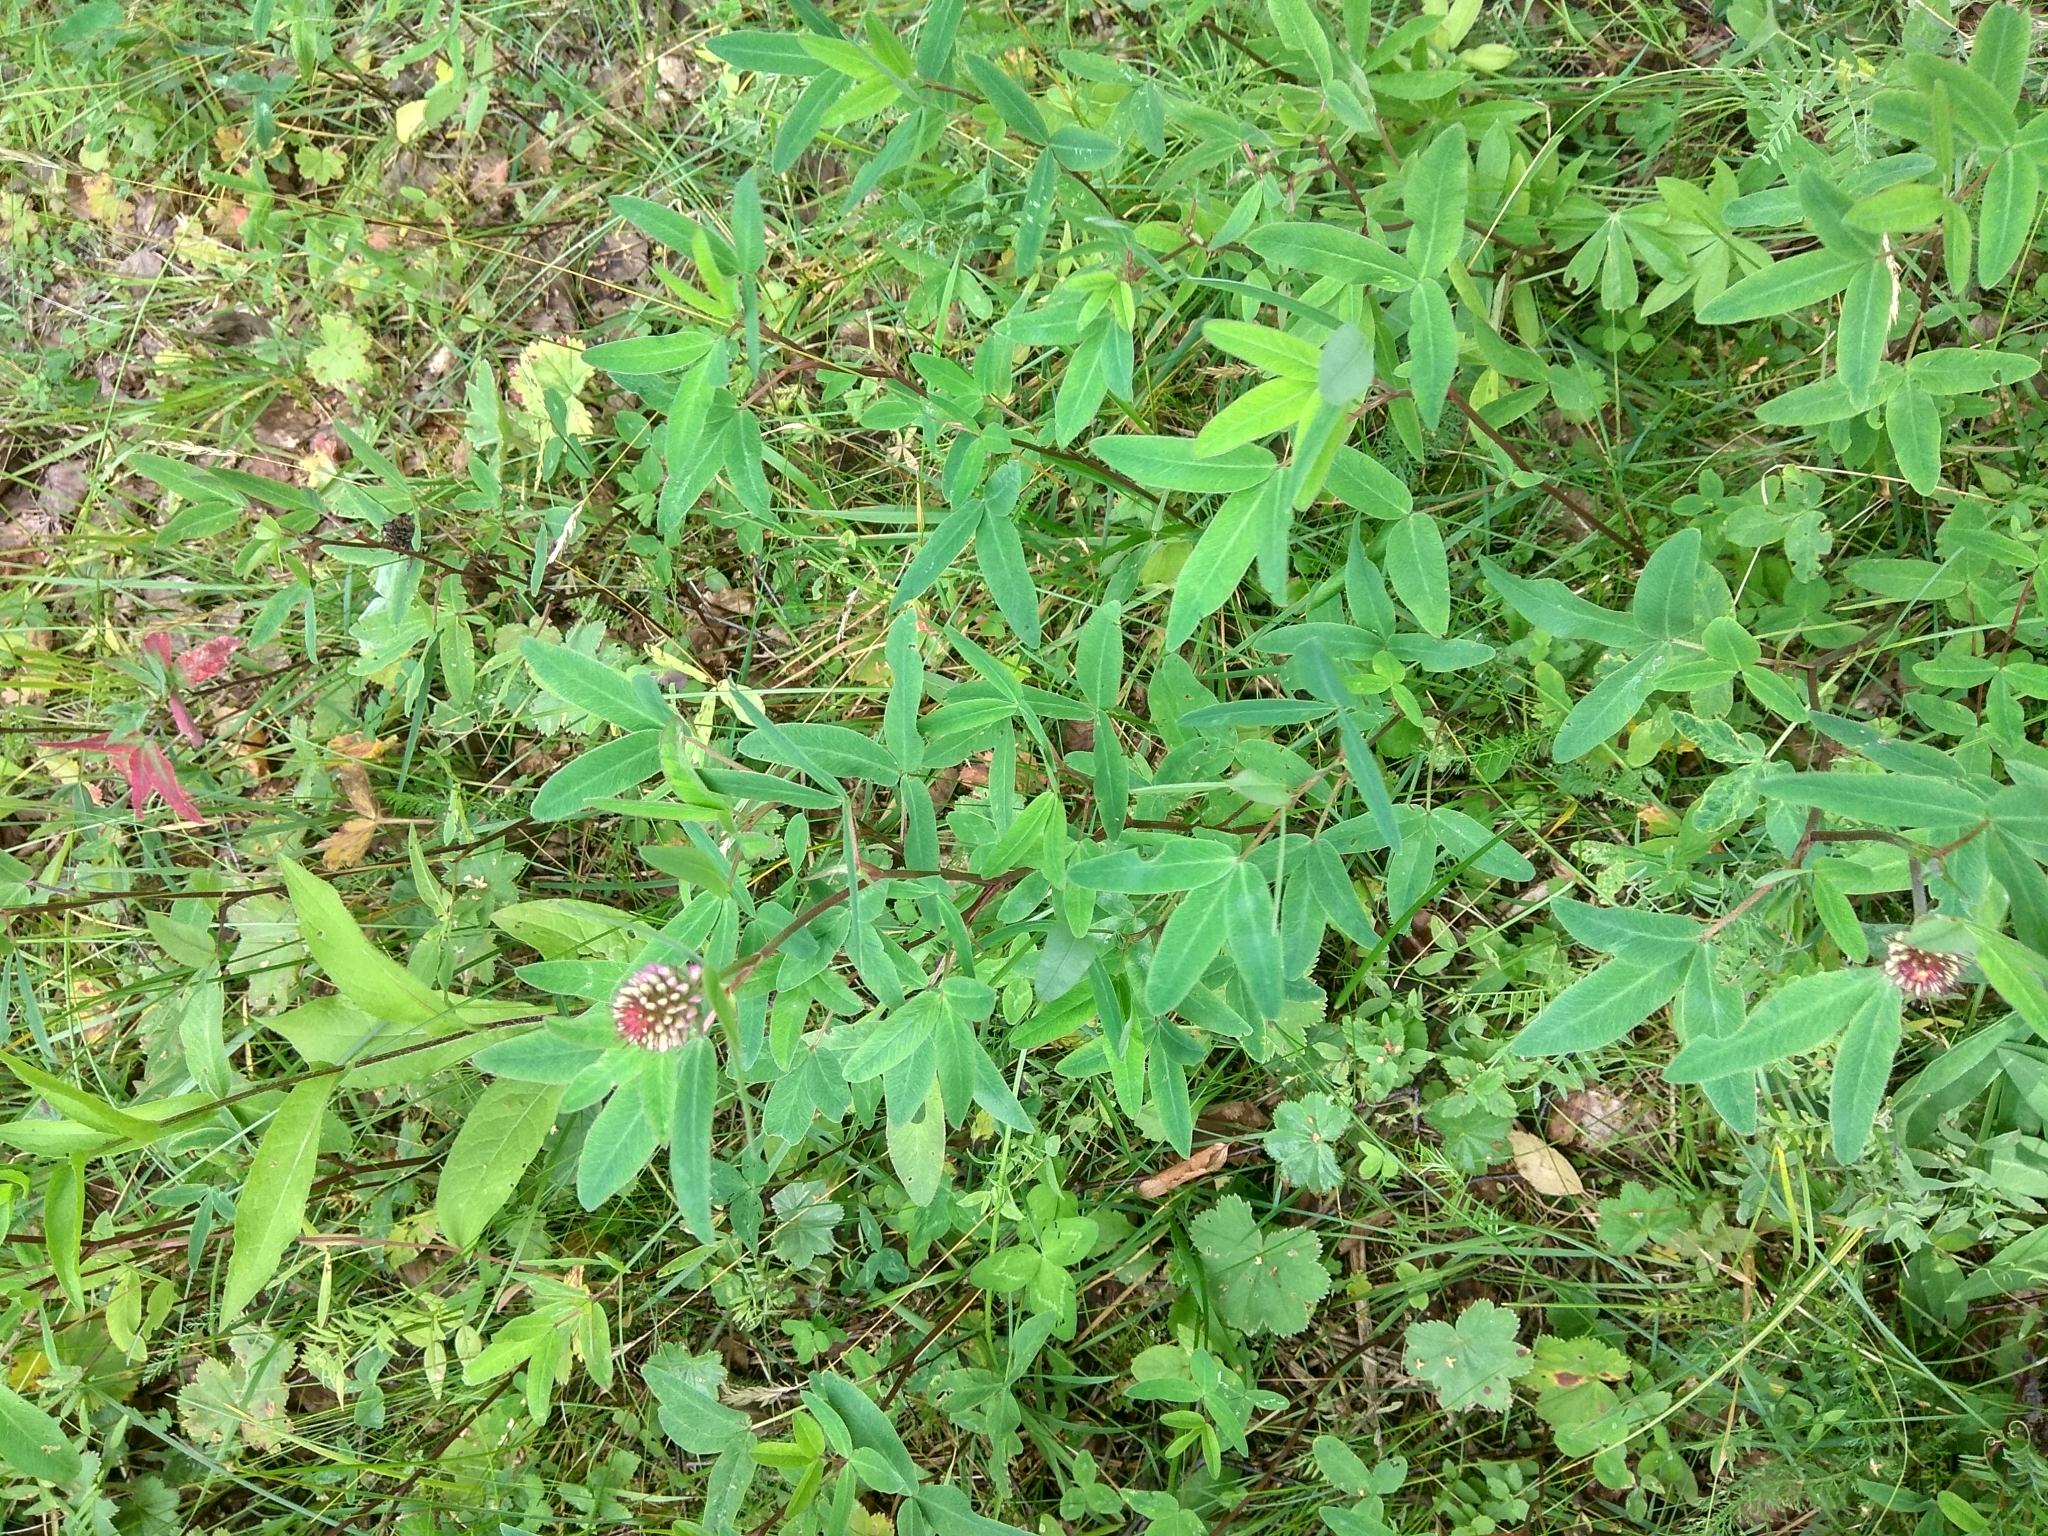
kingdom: Plantae
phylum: Tracheophyta
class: Magnoliopsida
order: Fabales
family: Fabaceae
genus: Trifolium
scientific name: Trifolium medium
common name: Zigzag clover
